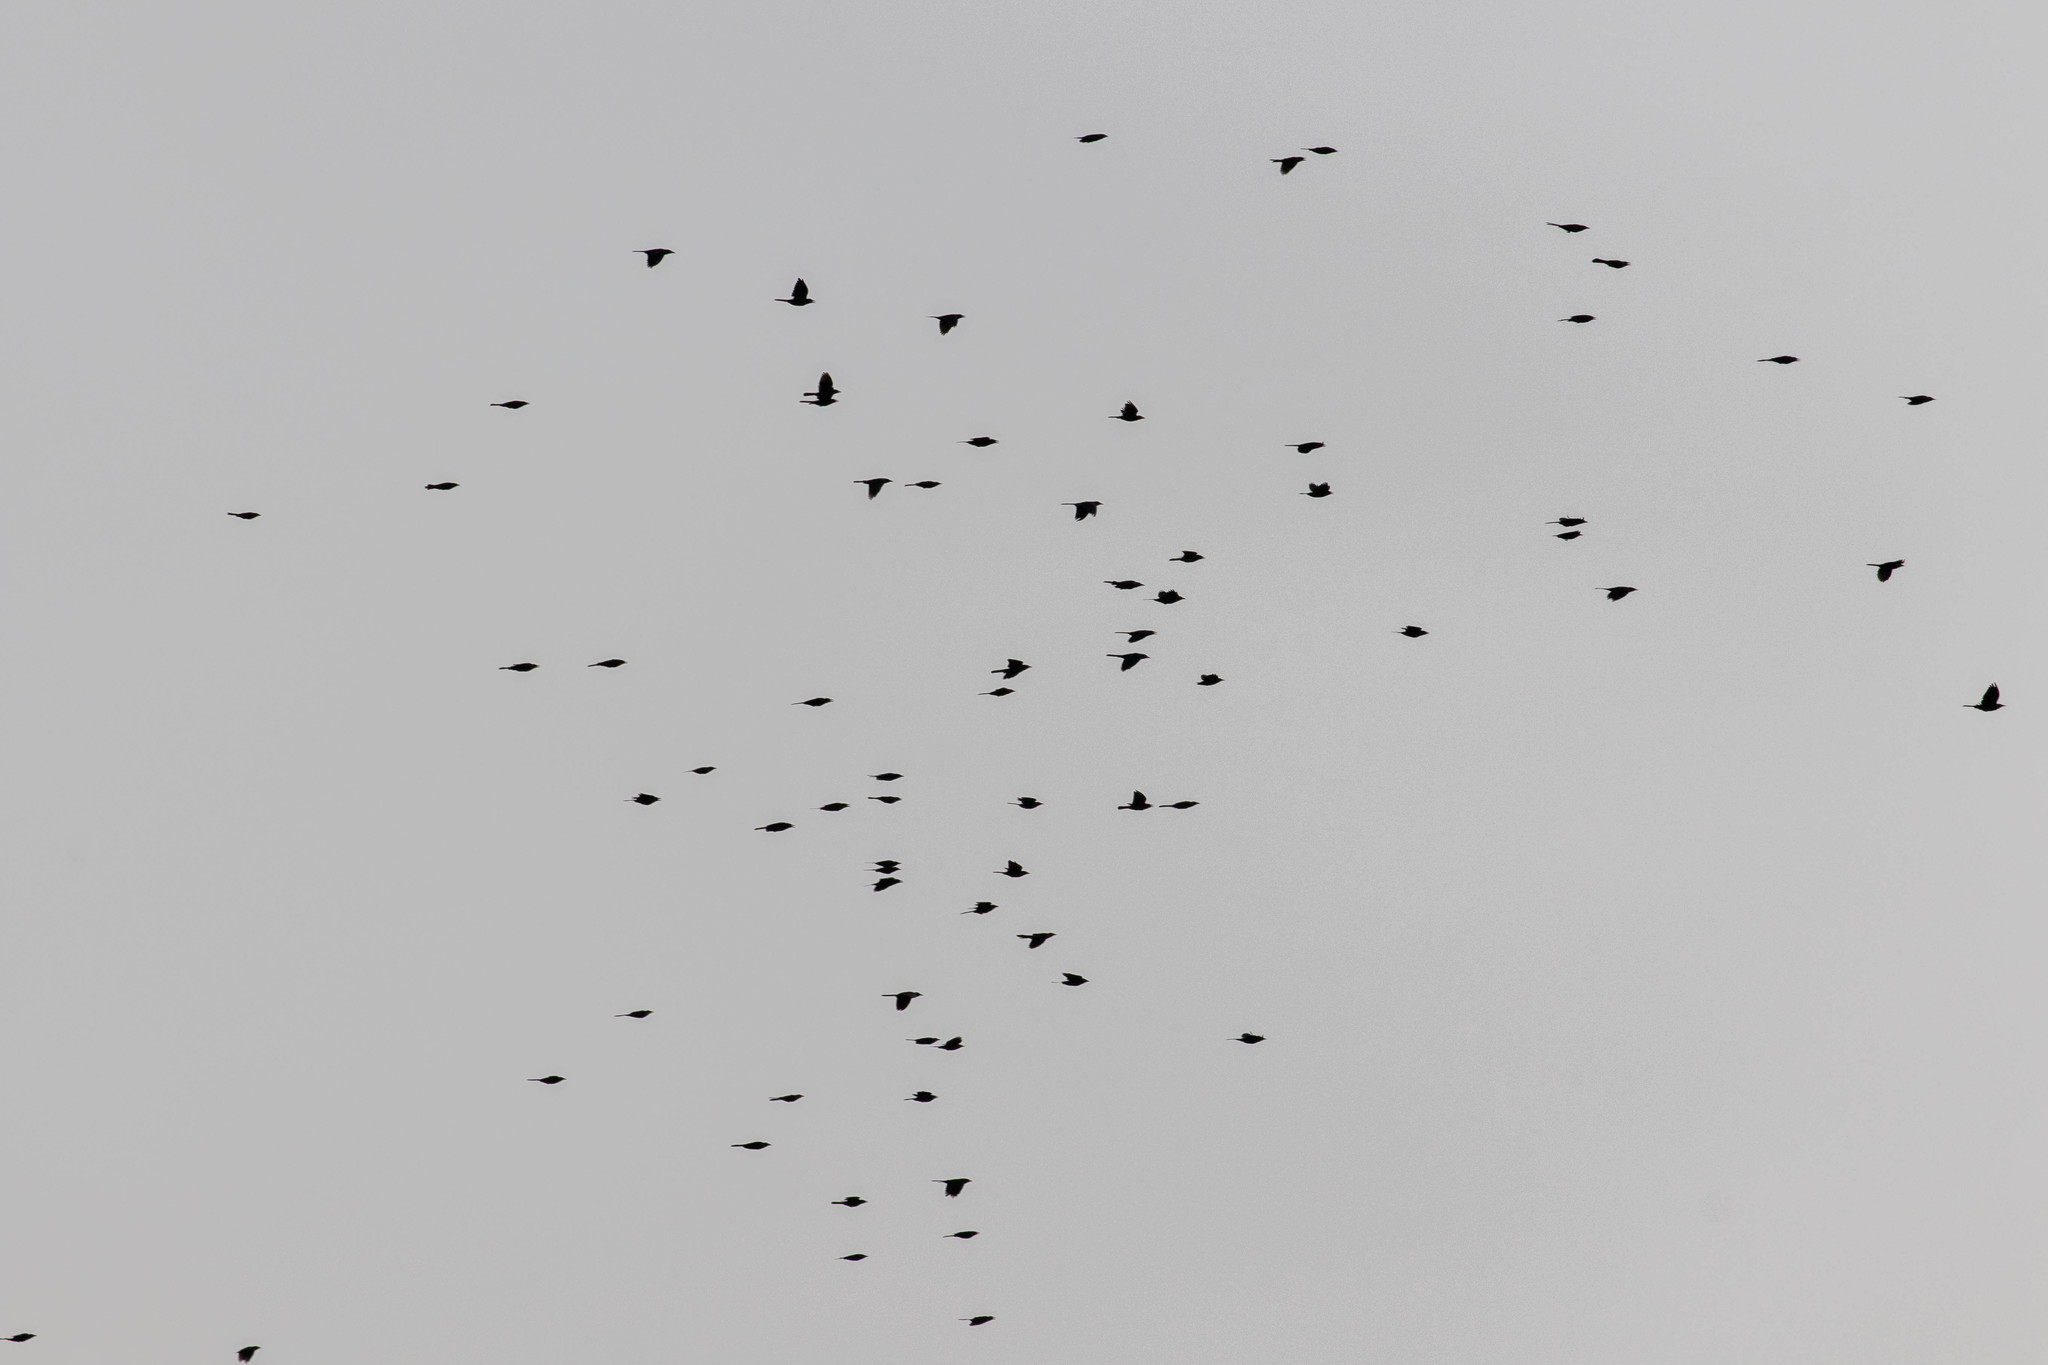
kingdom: Animalia
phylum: Chordata
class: Aves
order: Passeriformes
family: Icteridae
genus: Quiscalus
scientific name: Quiscalus quiscula
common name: Common grackle
